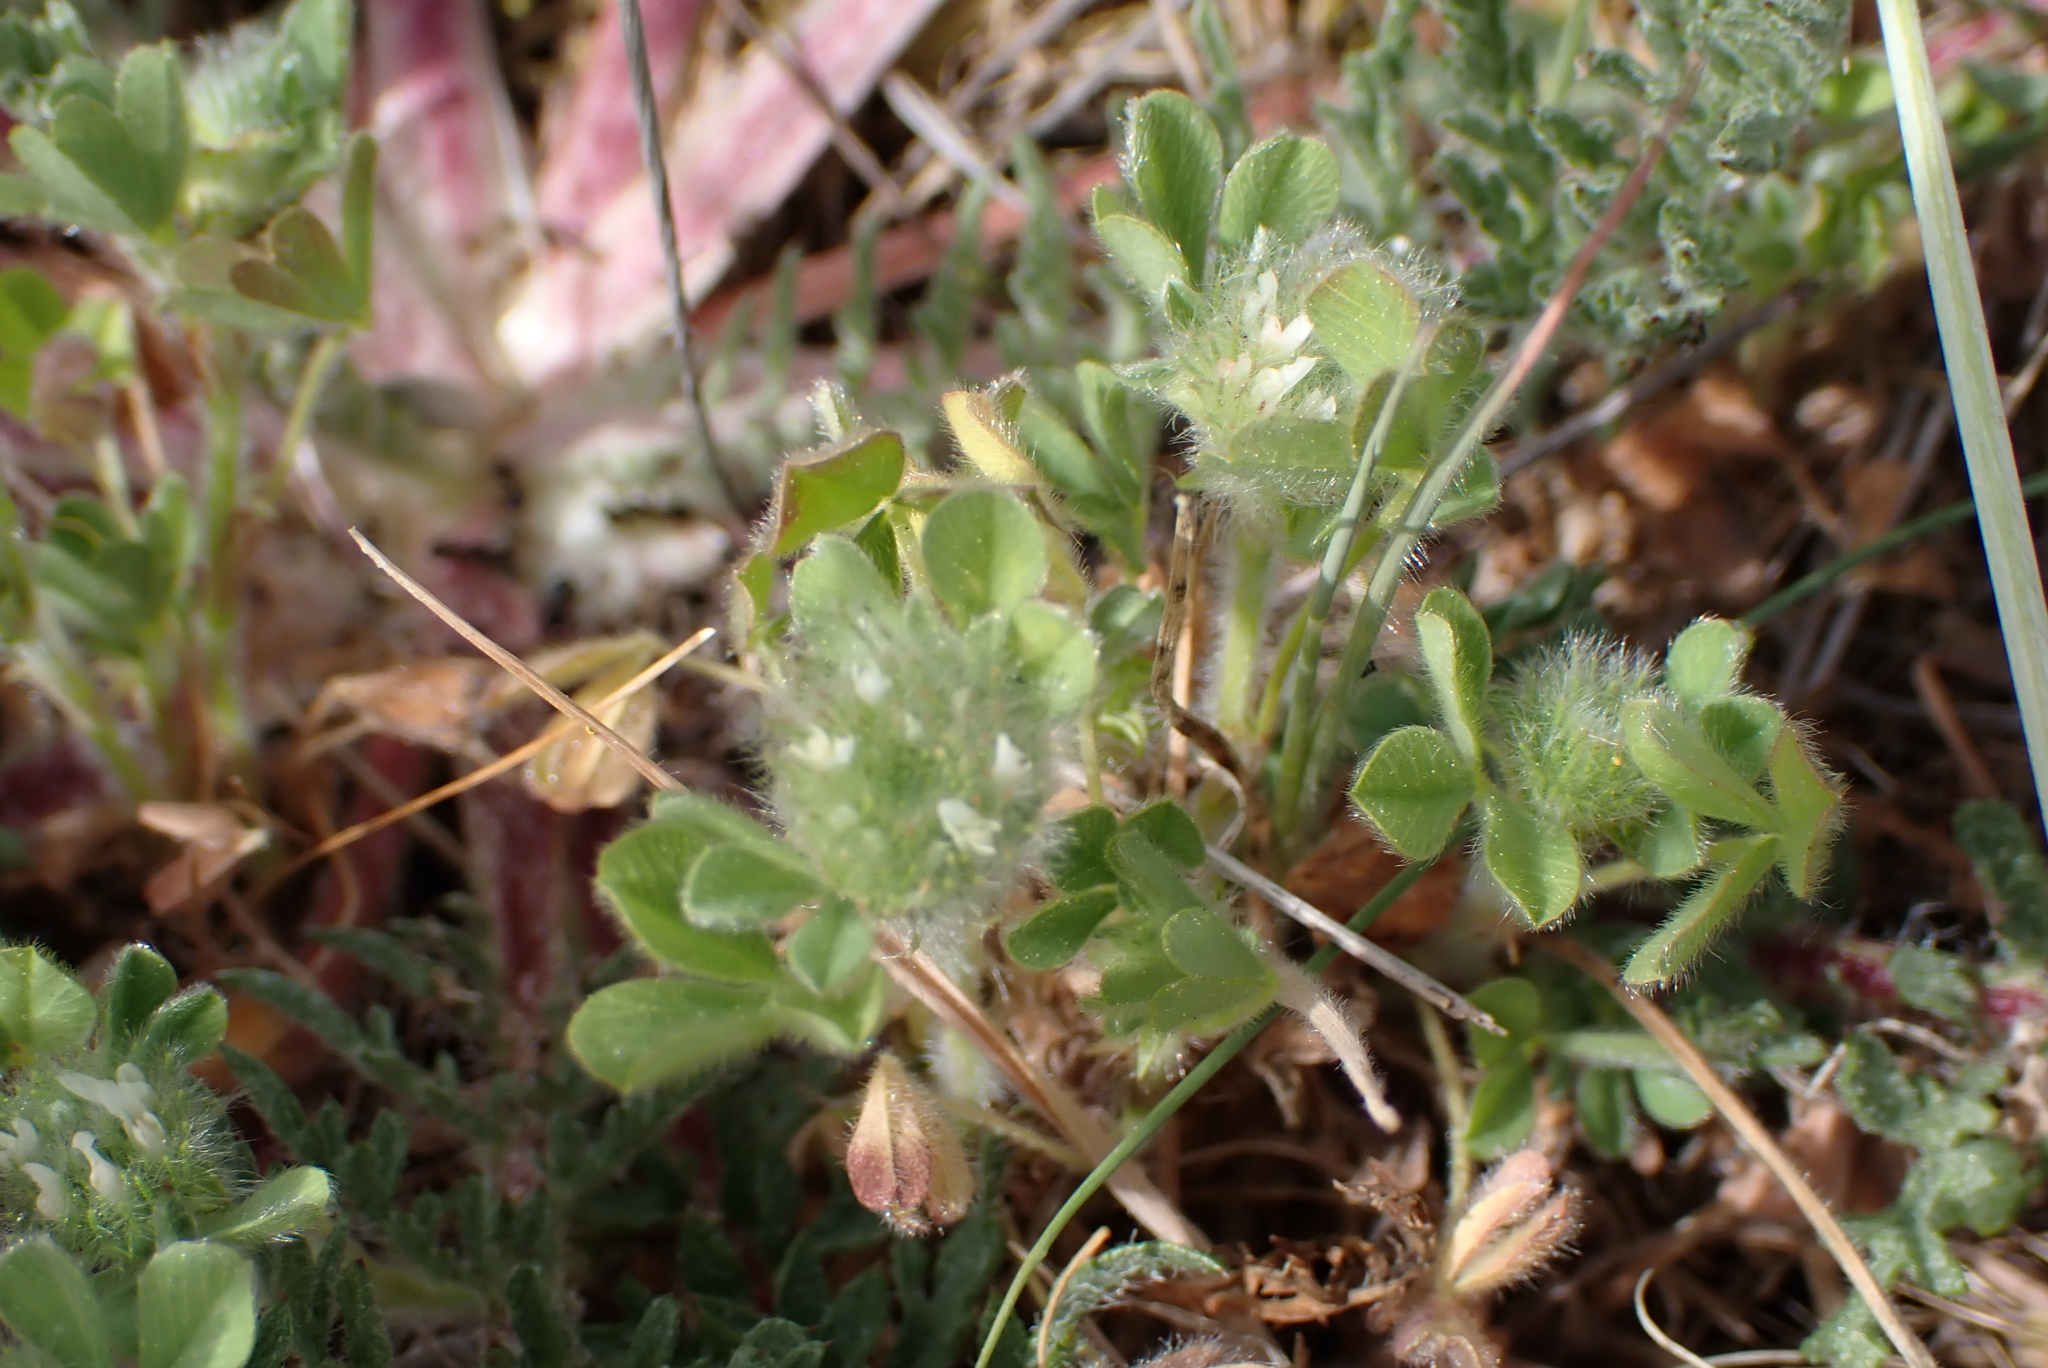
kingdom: Plantae
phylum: Tracheophyta
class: Magnoliopsida
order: Fabales
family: Fabaceae
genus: Trifolium
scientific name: Trifolium cherleri
